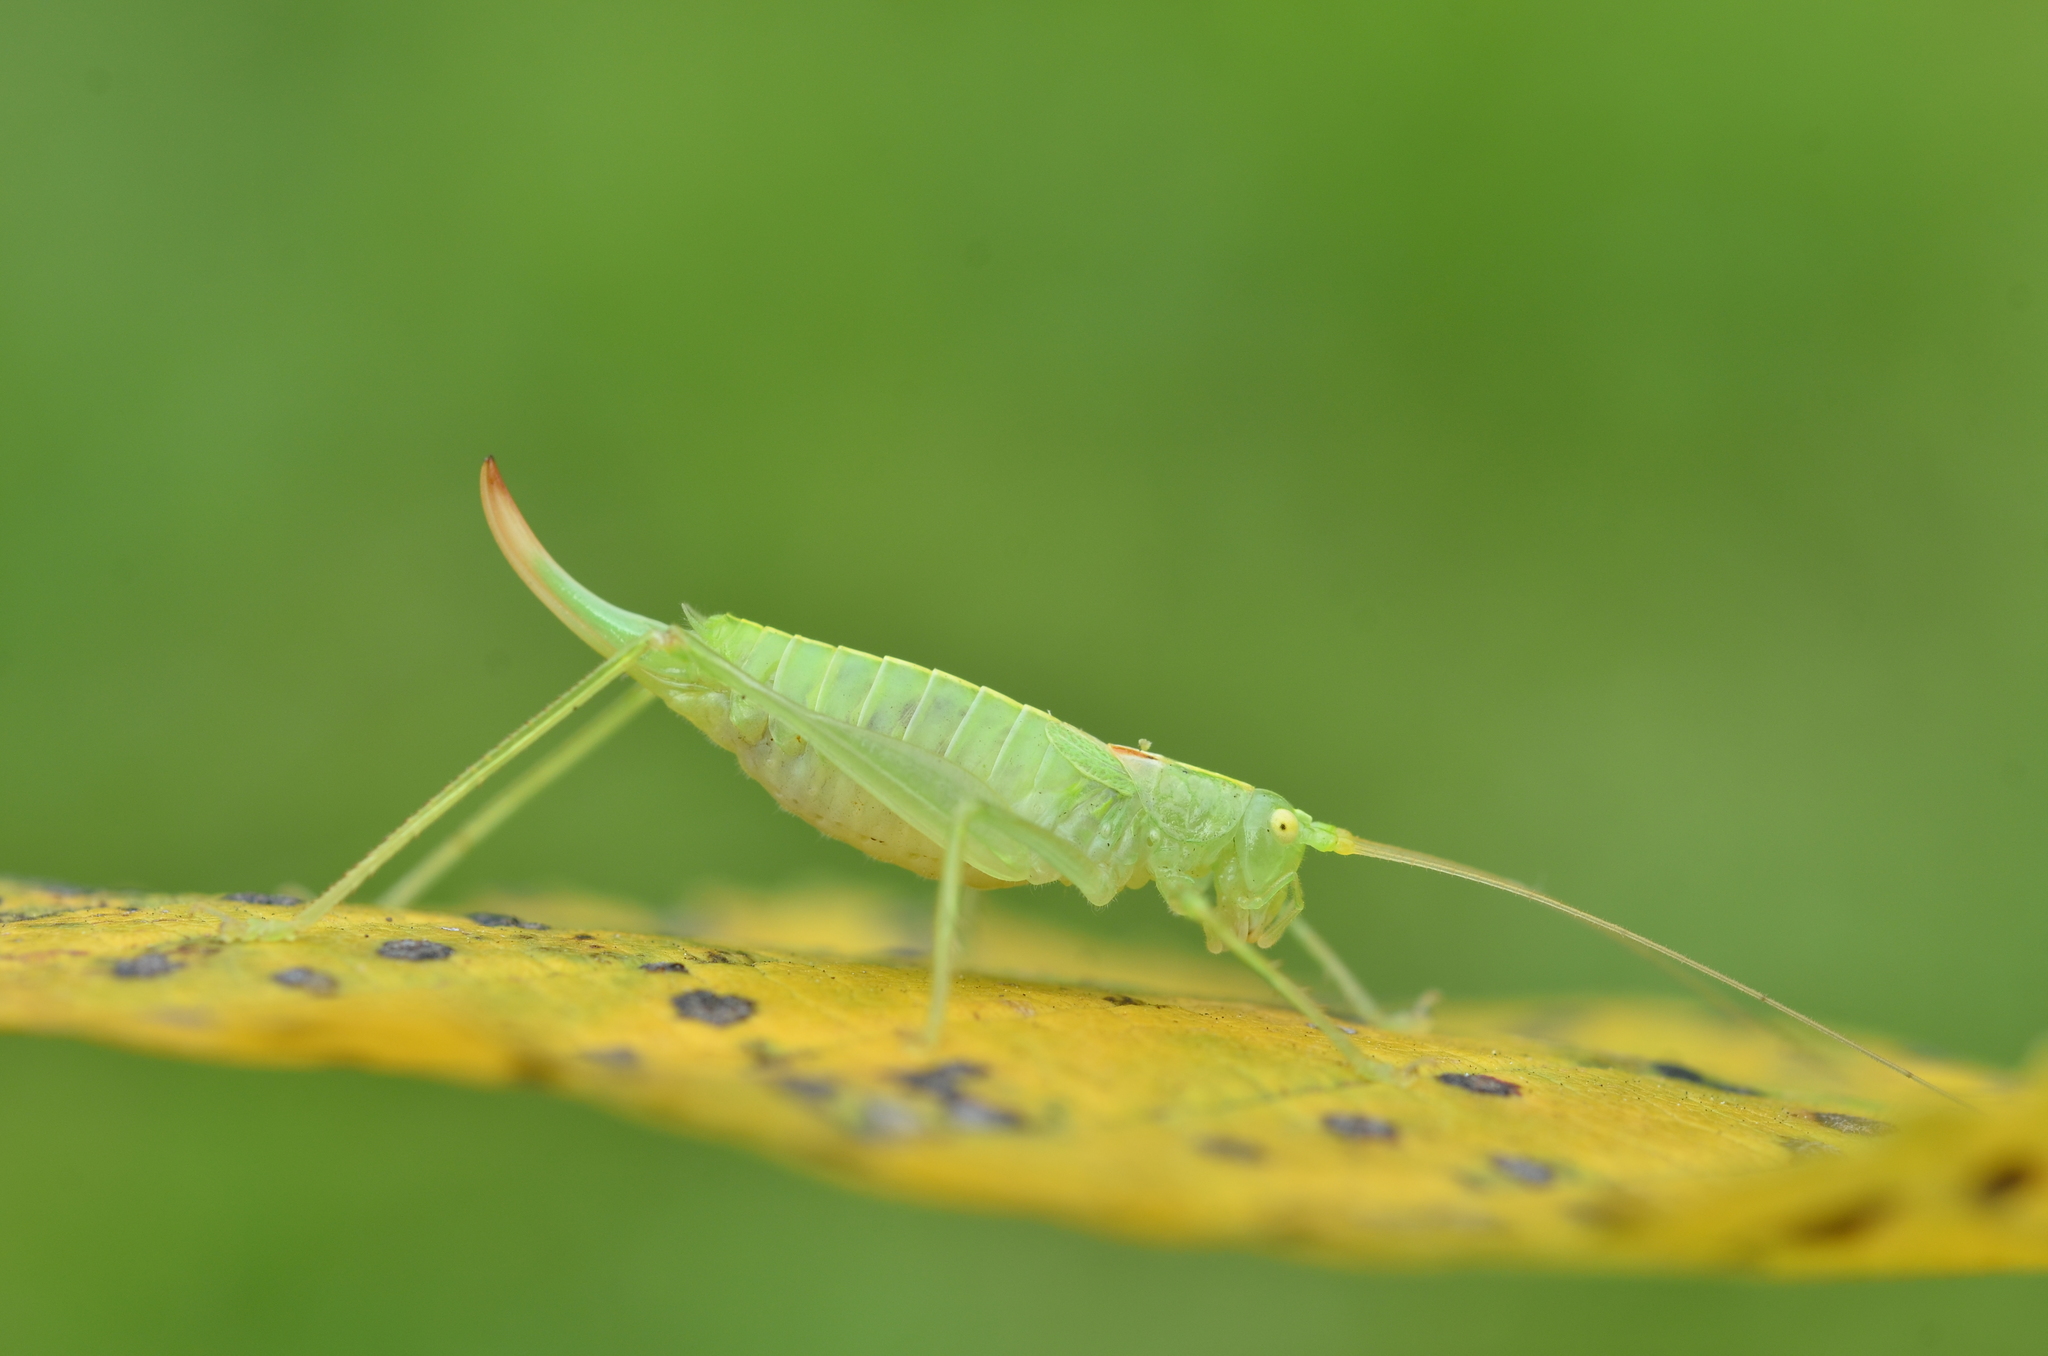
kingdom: Animalia
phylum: Arthropoda
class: Insecta
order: Orthoptera
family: Tettigoniidae
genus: Meconema
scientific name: Meconema meridionale
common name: Southern oak bush-cricket
